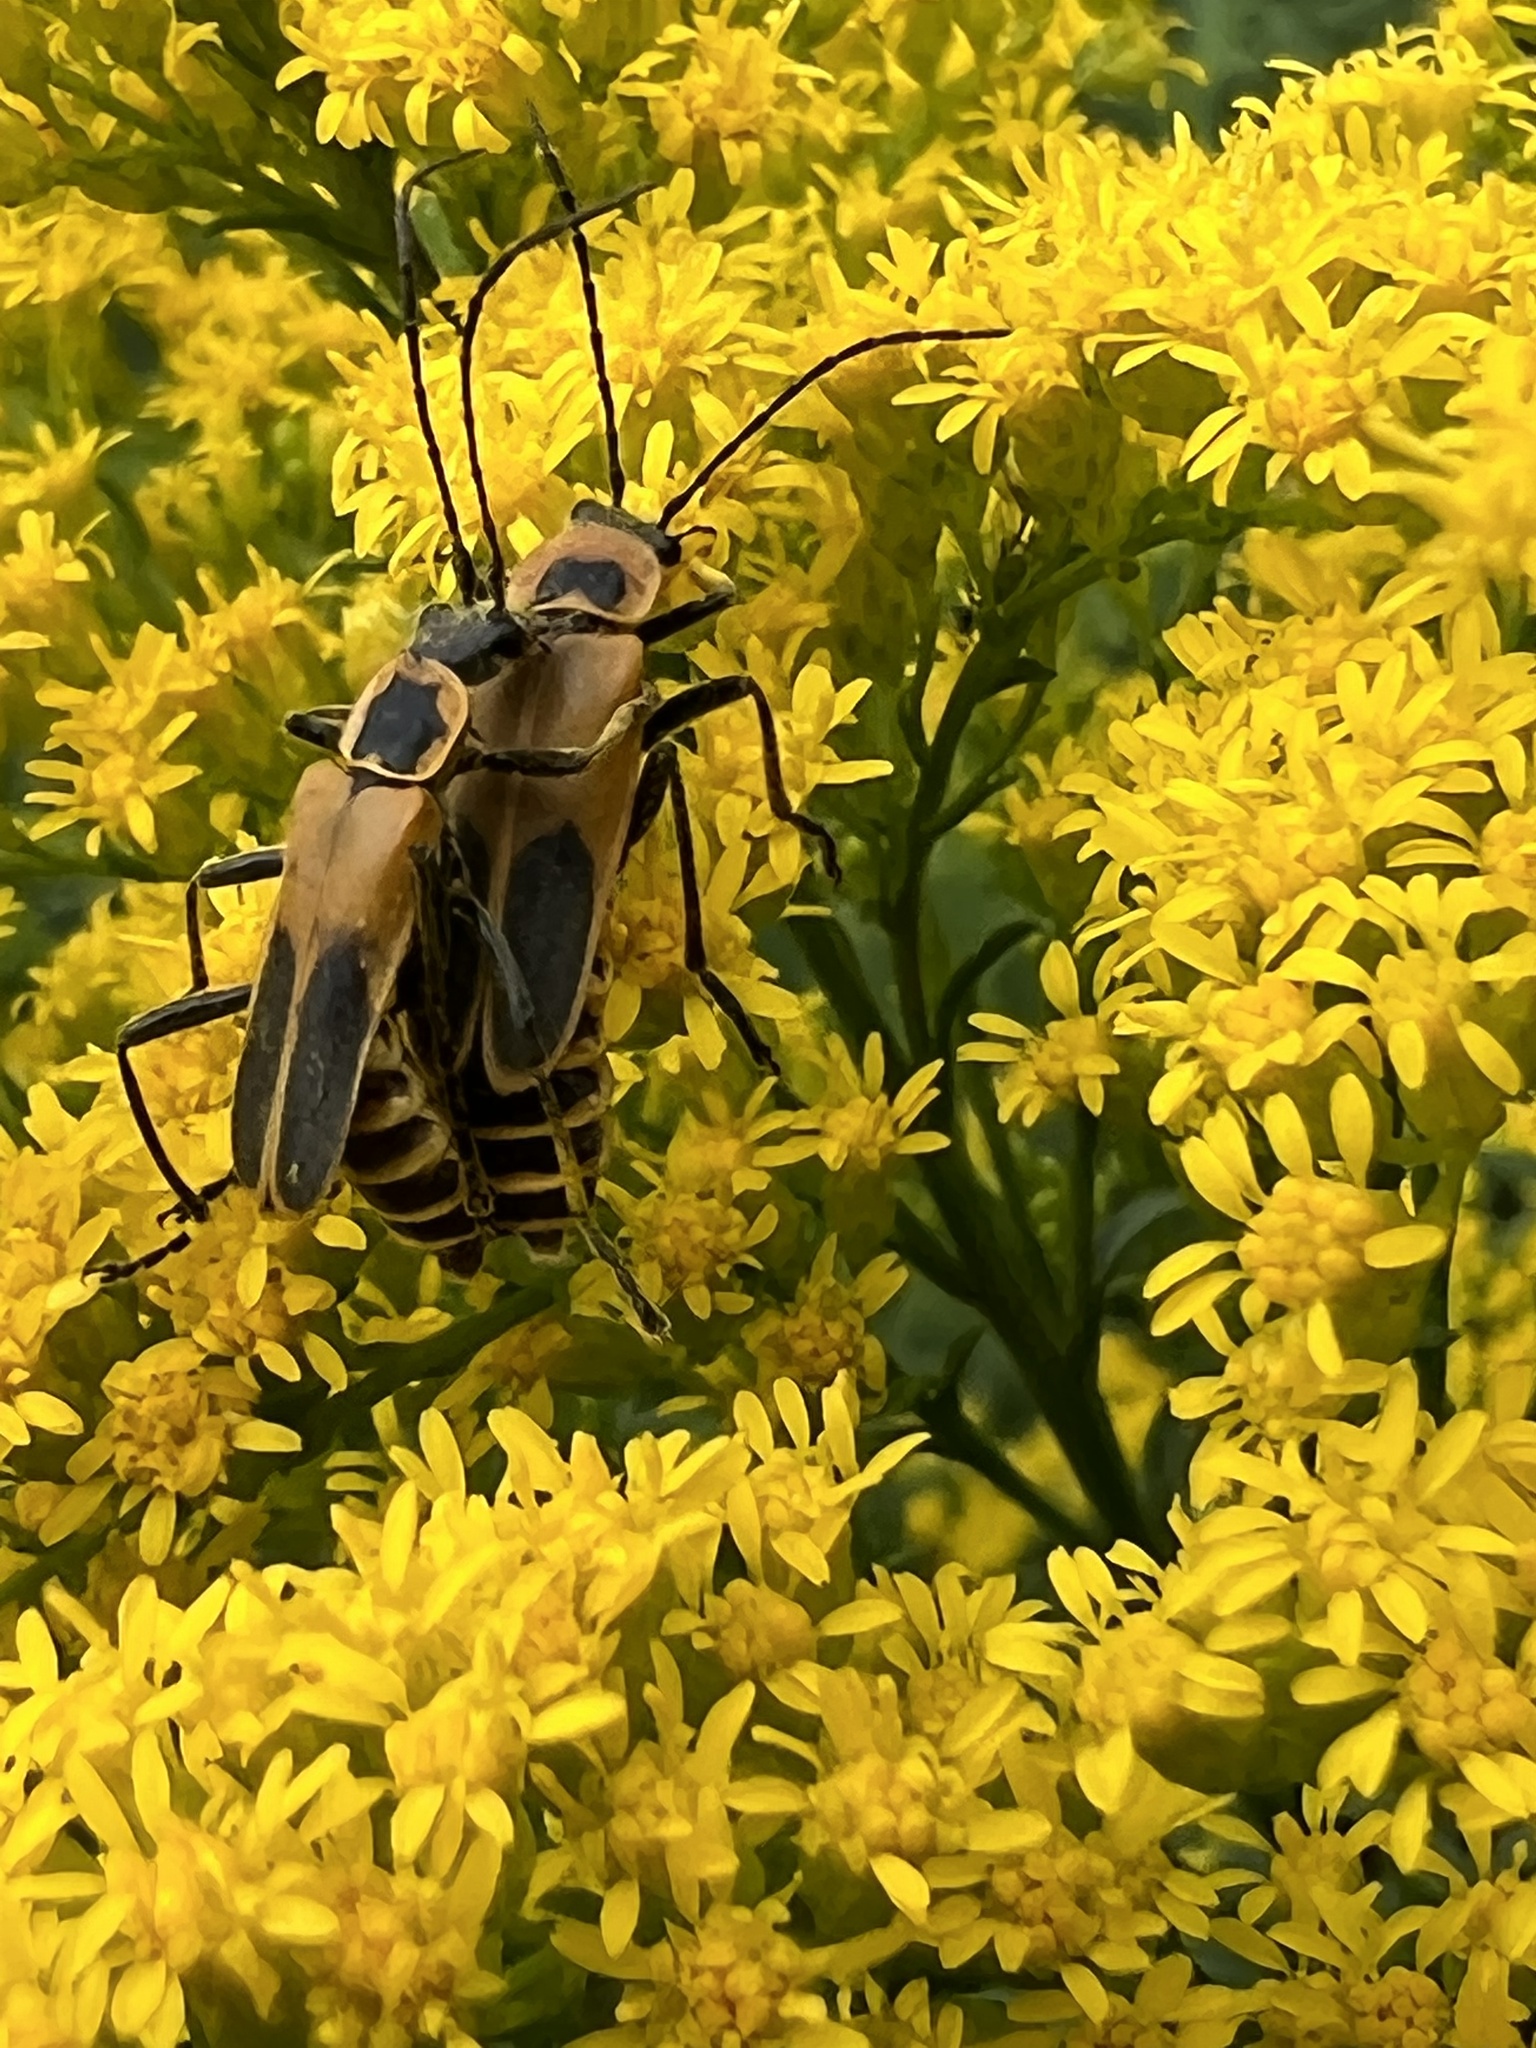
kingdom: Animalia
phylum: Arthropoda
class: Insecta
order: Coleoptera
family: Cantharidae
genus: Chauliognathus
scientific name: Chauliognathus pensylvanicus
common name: Goldenrod soldier beetle
